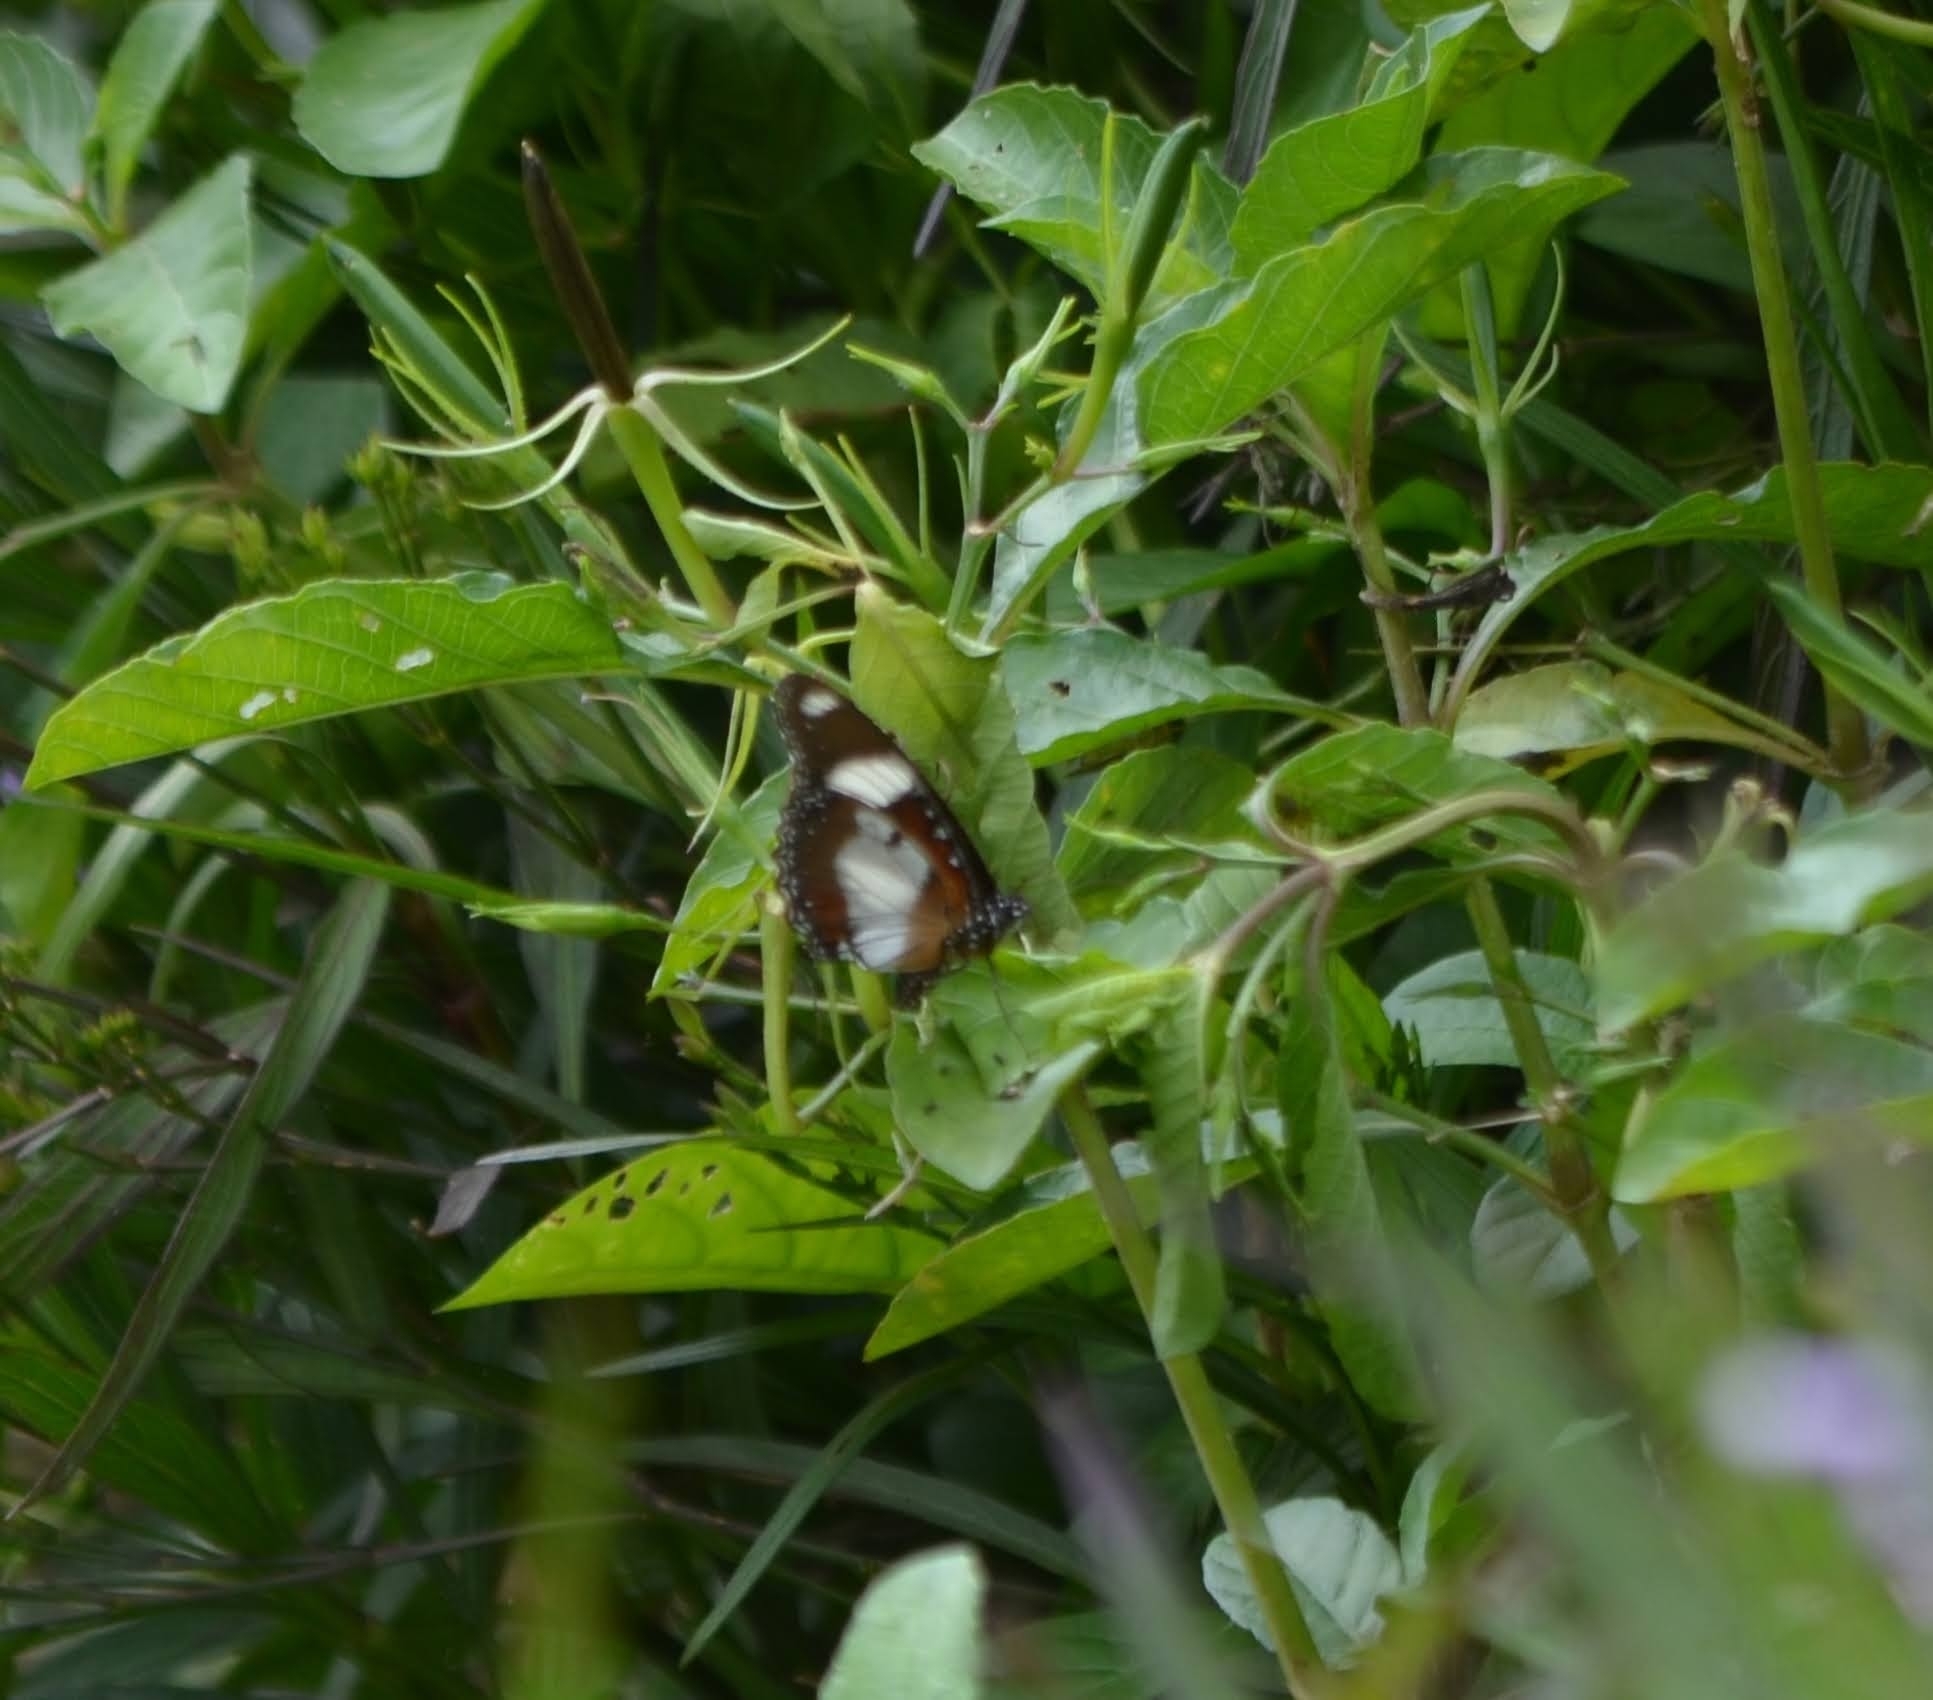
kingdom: Animalia
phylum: Arthropoda
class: Insecta
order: Lepidoptera
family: Nymphalidae
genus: Hypolimnas
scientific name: Hypolimnas misippus
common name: False plain tiger
